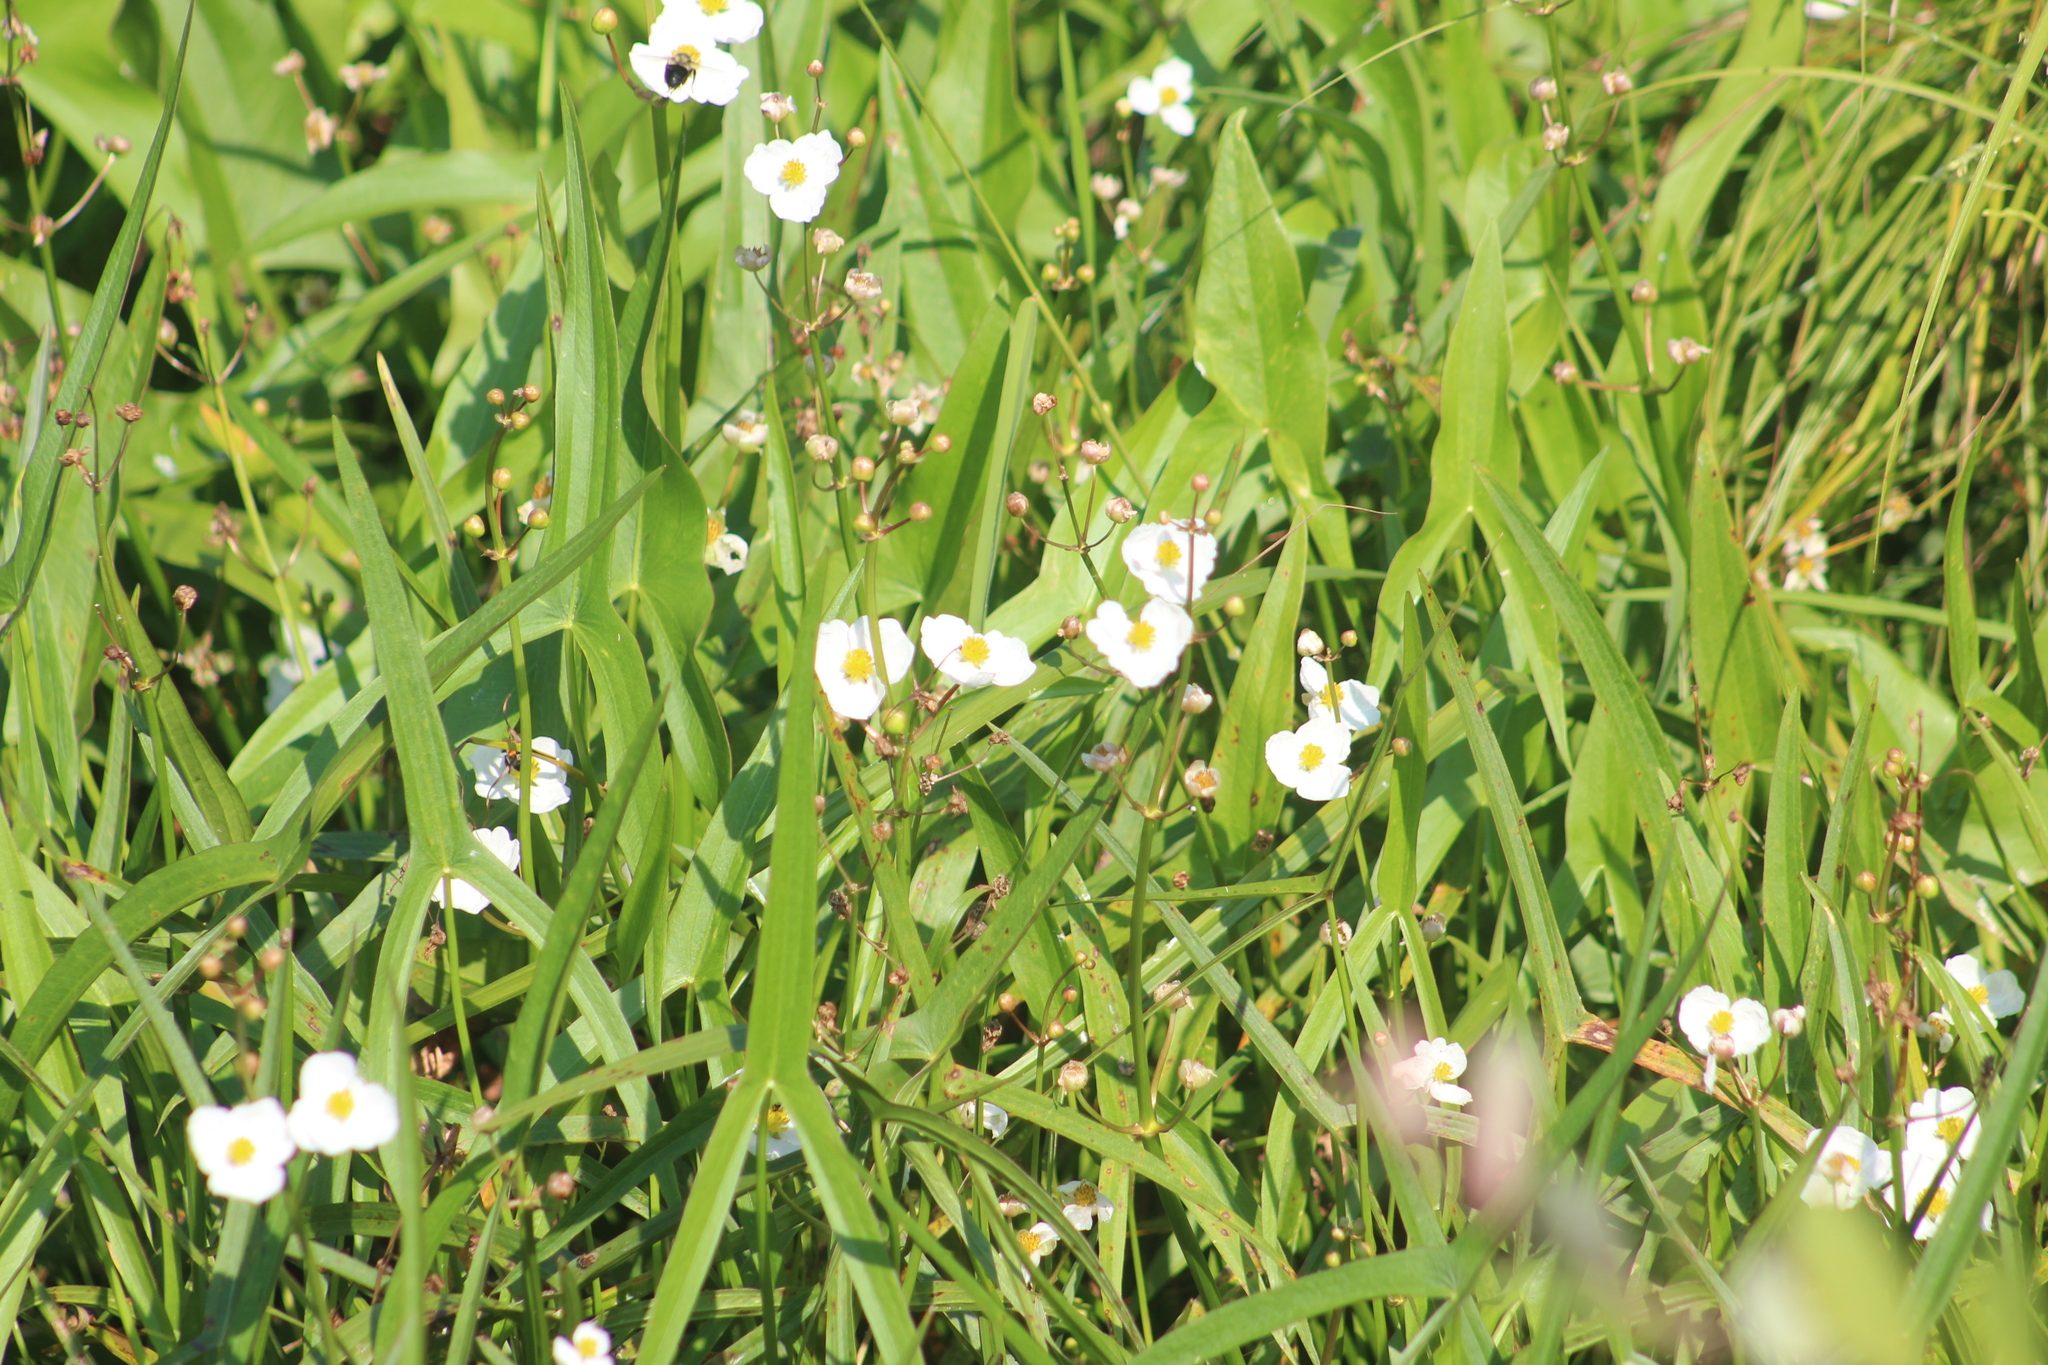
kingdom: Plantae
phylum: Tracheophyta
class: Liliopsida
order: Alismatales
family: Alismataceae
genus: Sagittaria
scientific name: Sagittaria latifolia
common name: Duck-potato
